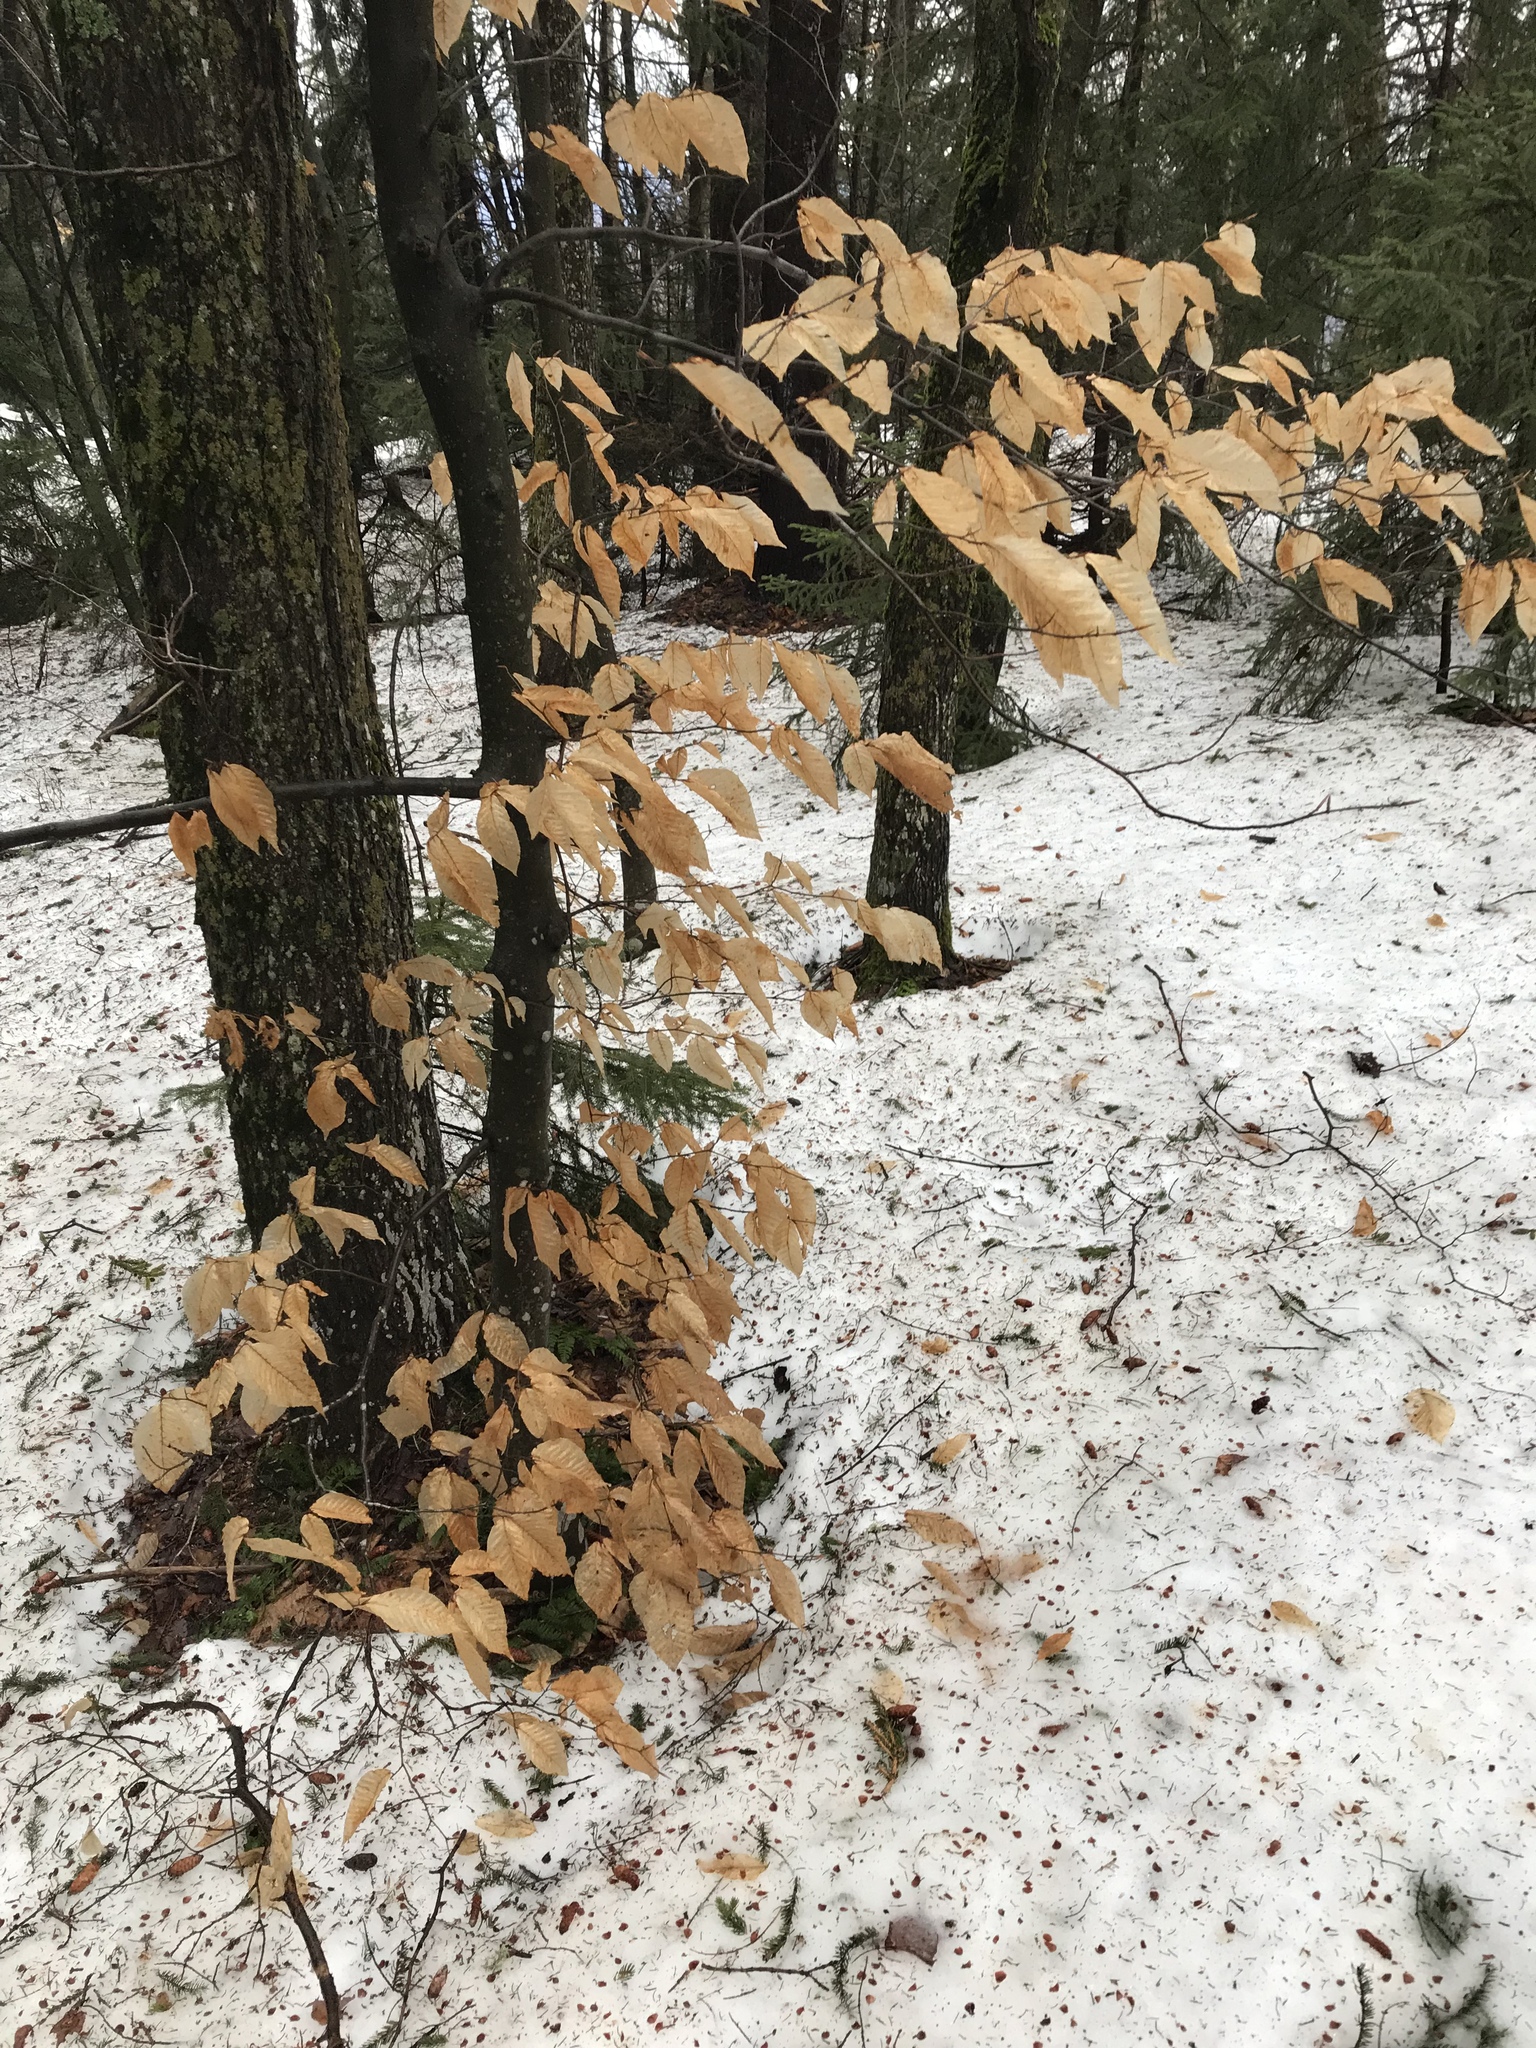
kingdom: Plantae
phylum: Tracheophyta
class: Magnoliopsida
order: Fagales
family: Fagaceae
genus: Fagus
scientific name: Fagus grandifolia
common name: American beech
